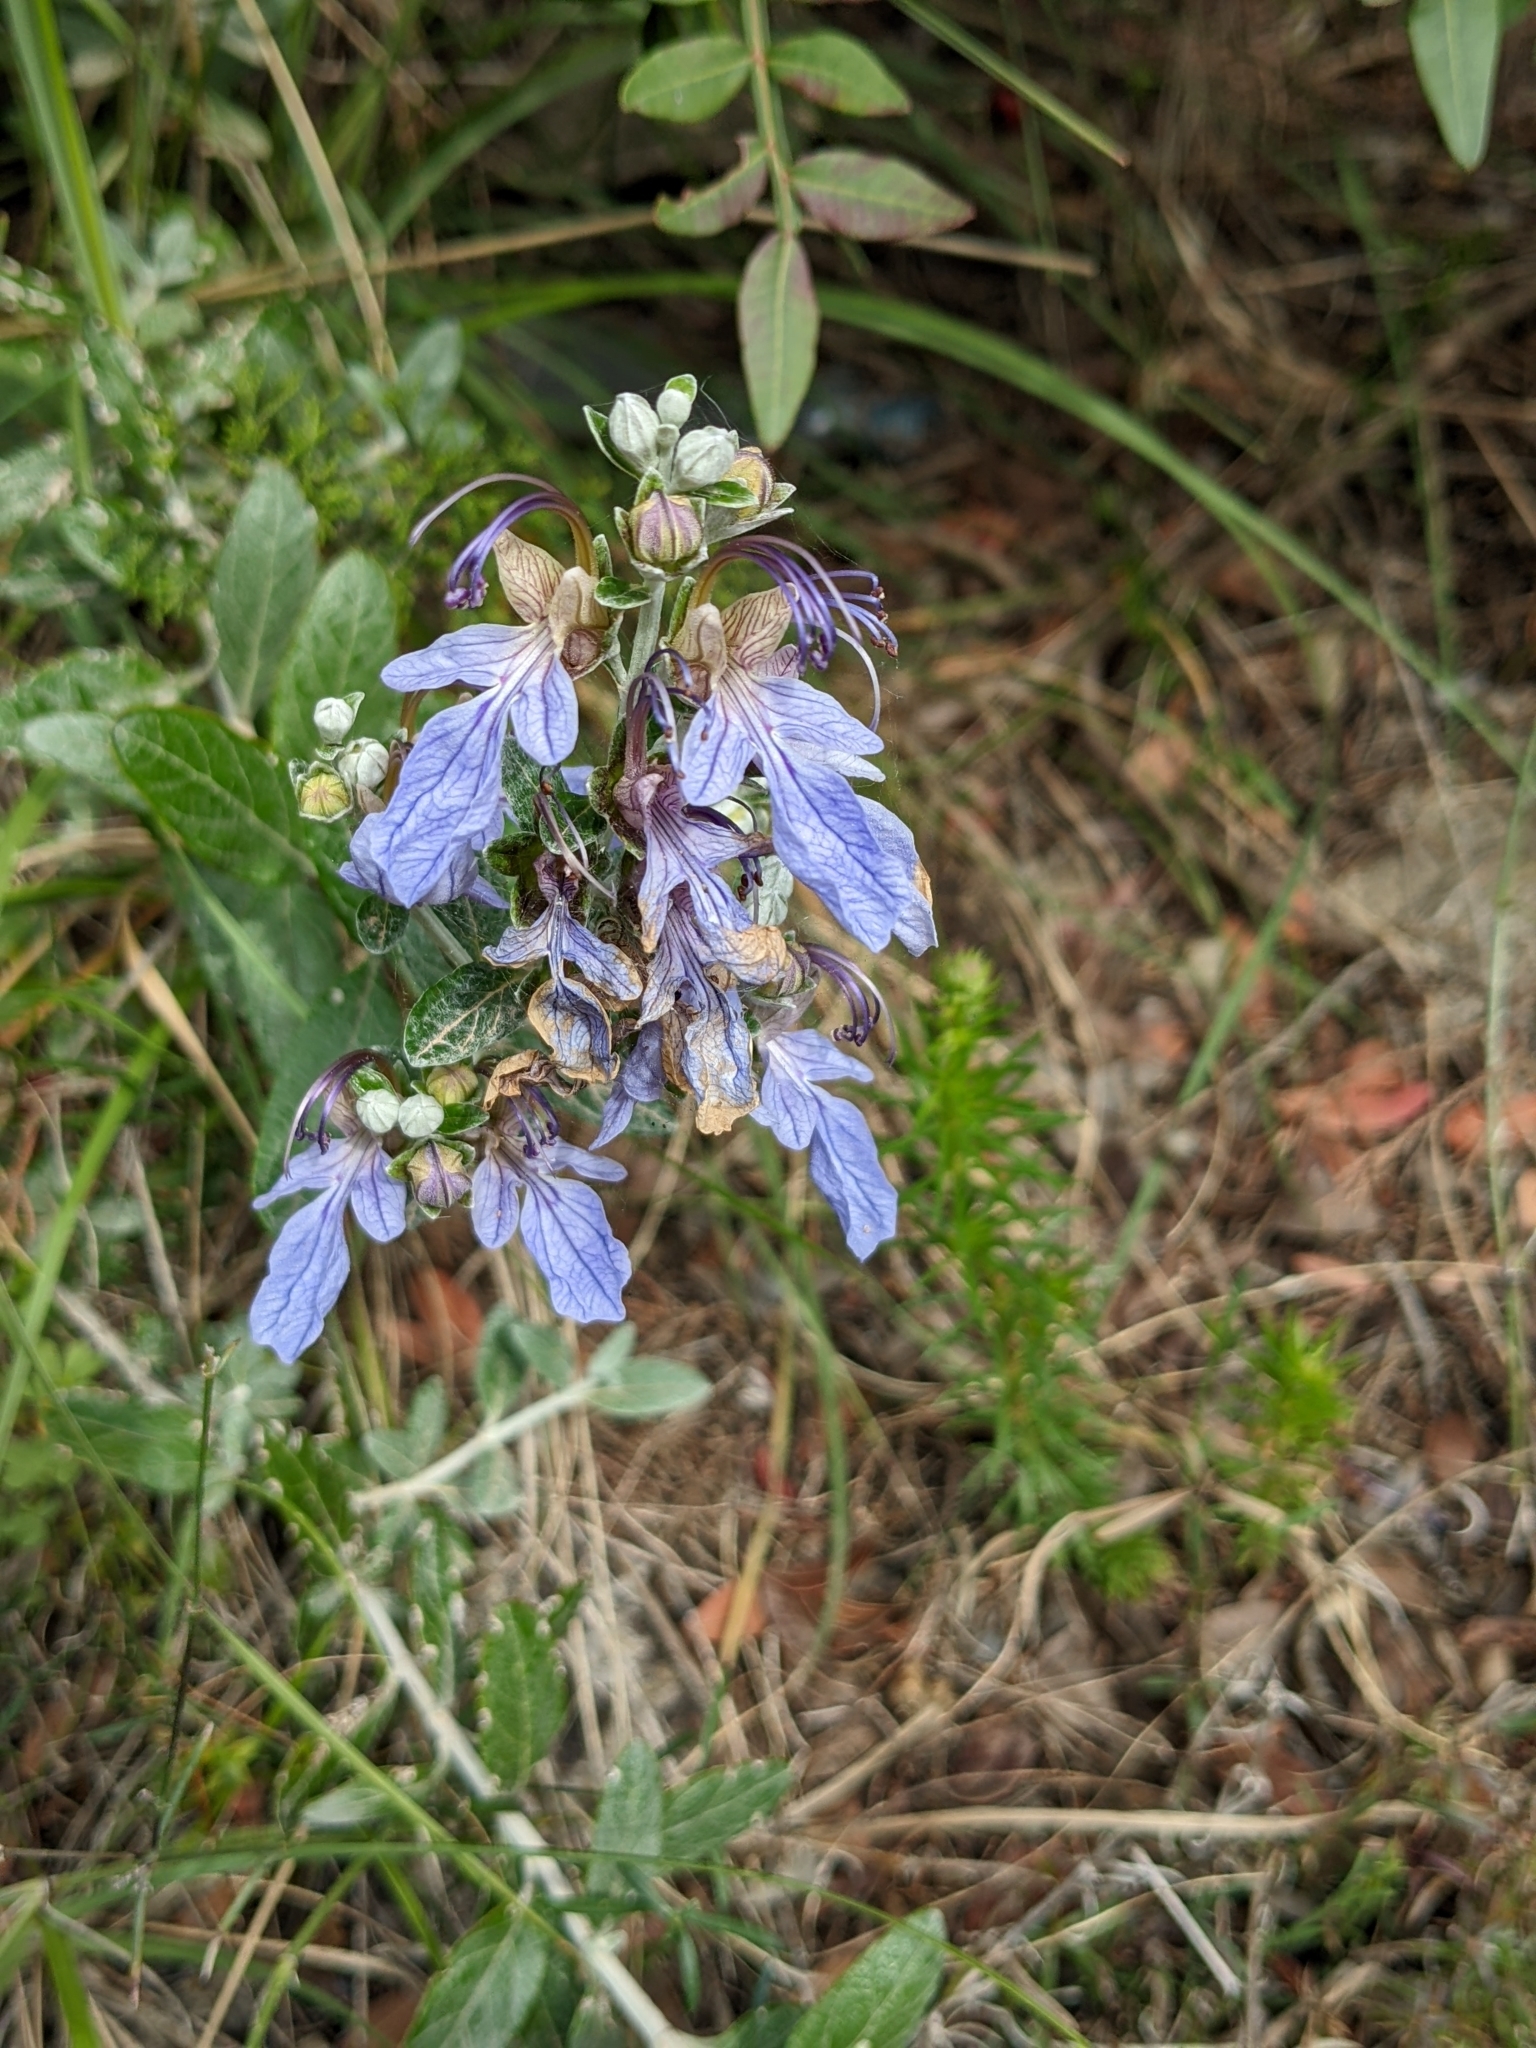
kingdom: Plantae
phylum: Tracheophyta
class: Magnoliopsida
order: Lamiales
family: Lamiaceae
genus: Teucrium
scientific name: Teucrium fruticans
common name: Shrubby germander
